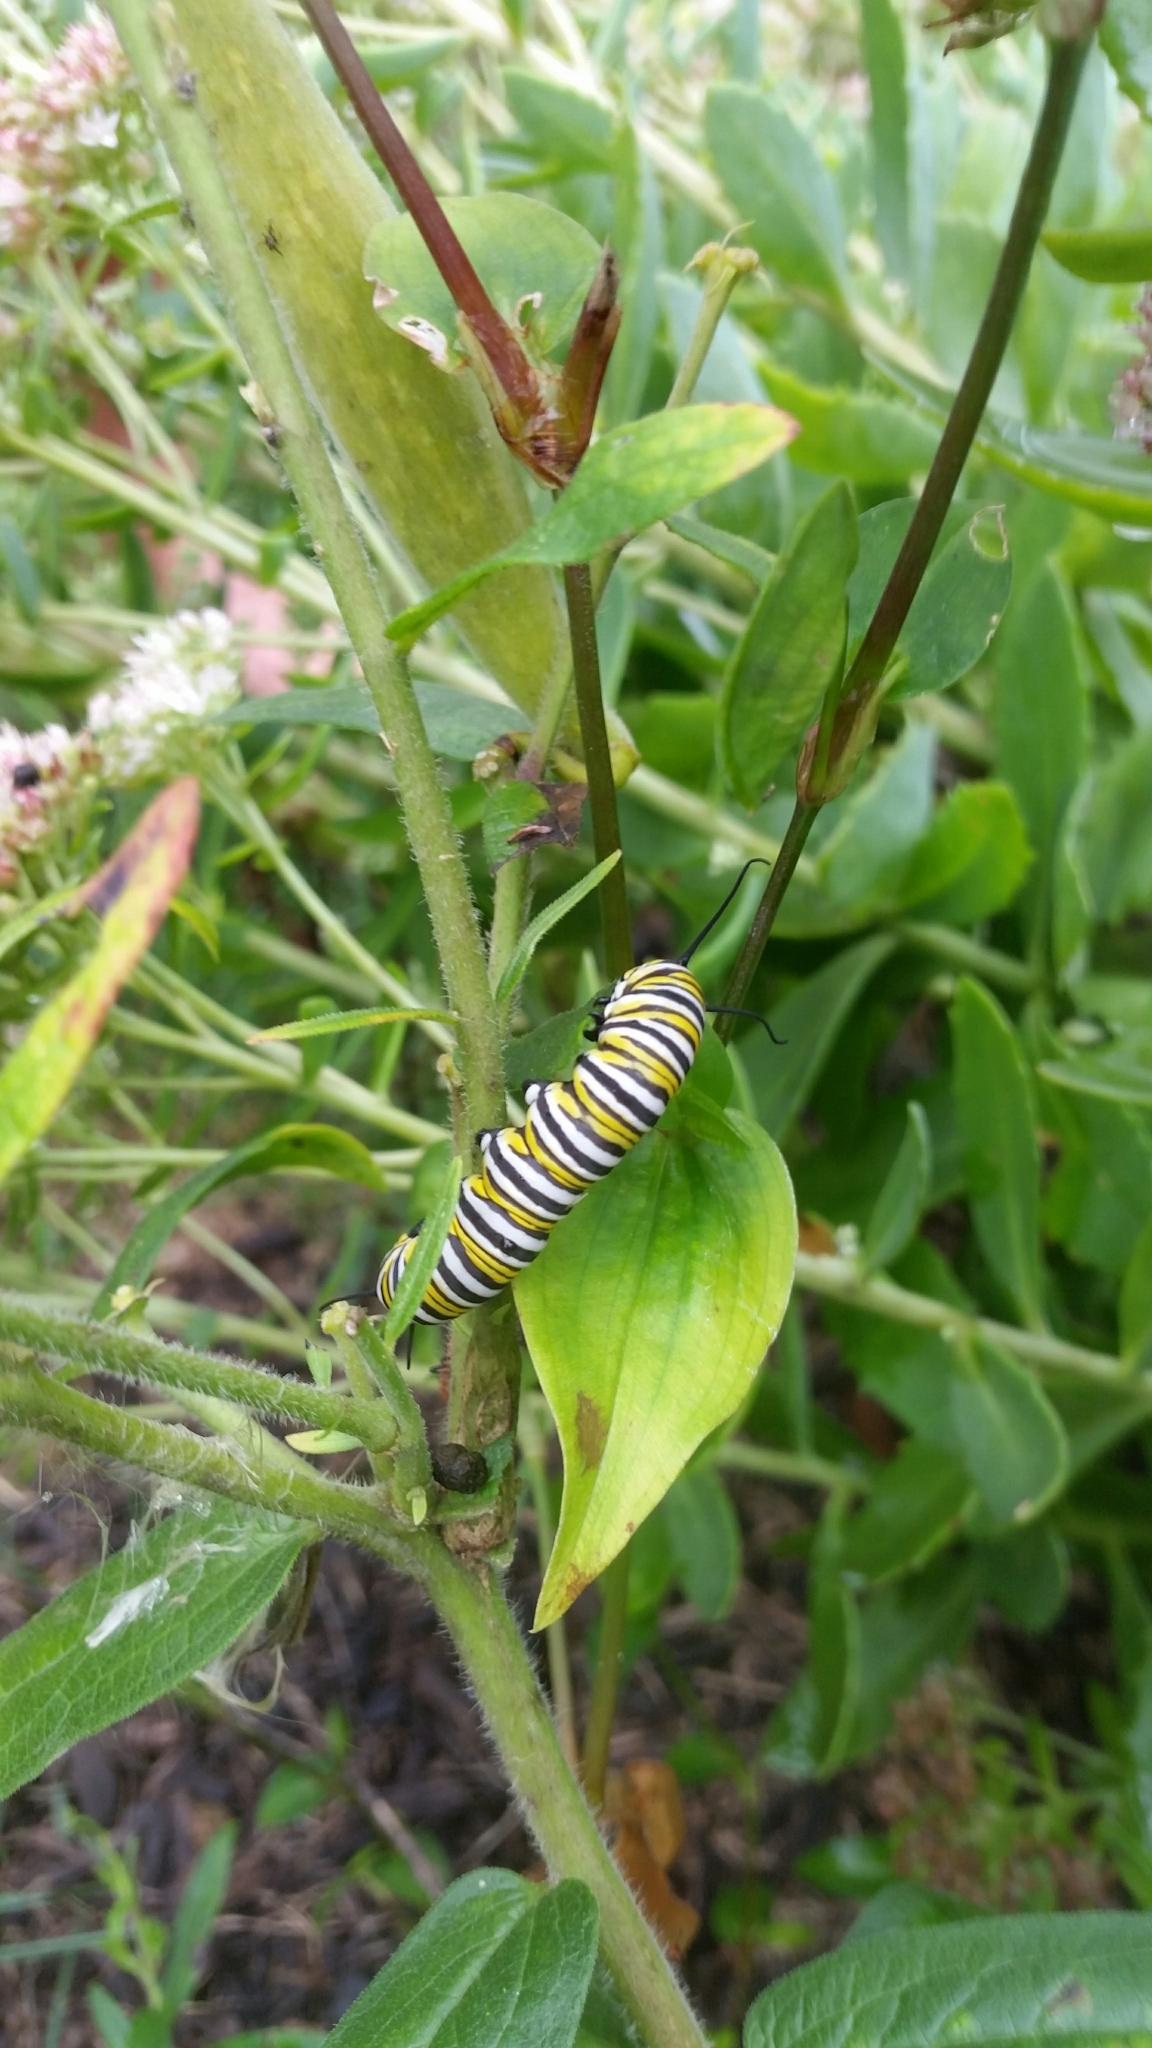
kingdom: Animalia
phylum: Arthropoda
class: Insecta
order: Lepidoptera
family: Nymphalidae
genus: Danaus
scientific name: Danaus plexippus
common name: Monarch
